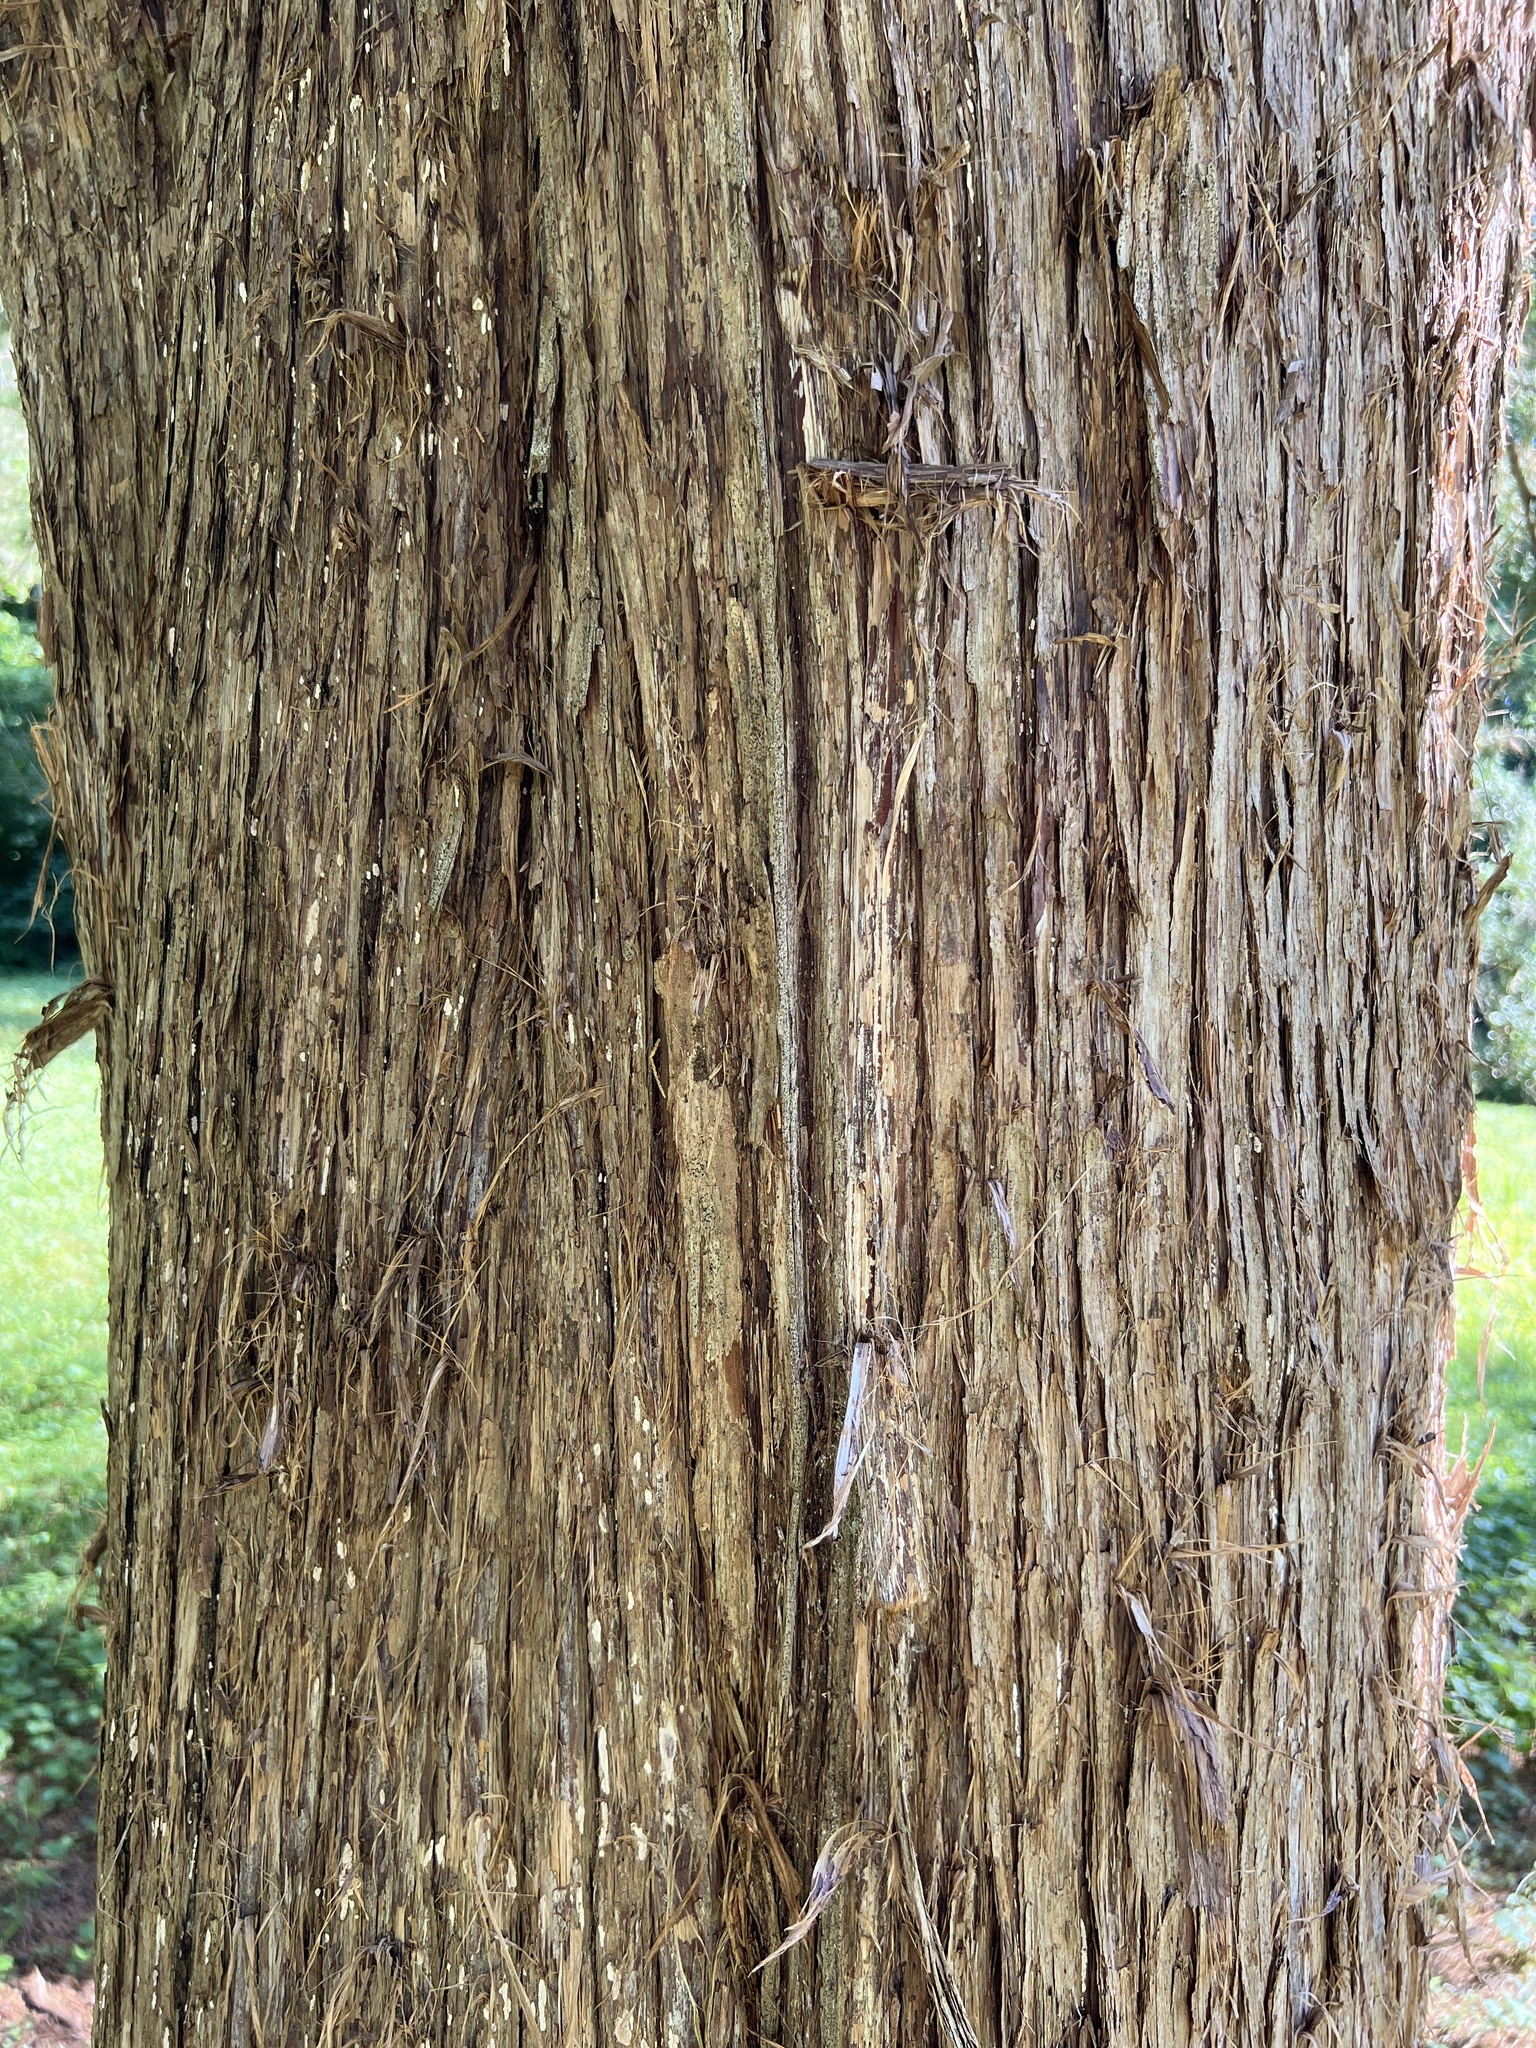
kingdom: Plantae
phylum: Tracheophyta
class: Pinopsida
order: Pinales
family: Cupressaceae
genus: Juniperus
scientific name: Juniperus virginiana
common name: Red juniper
